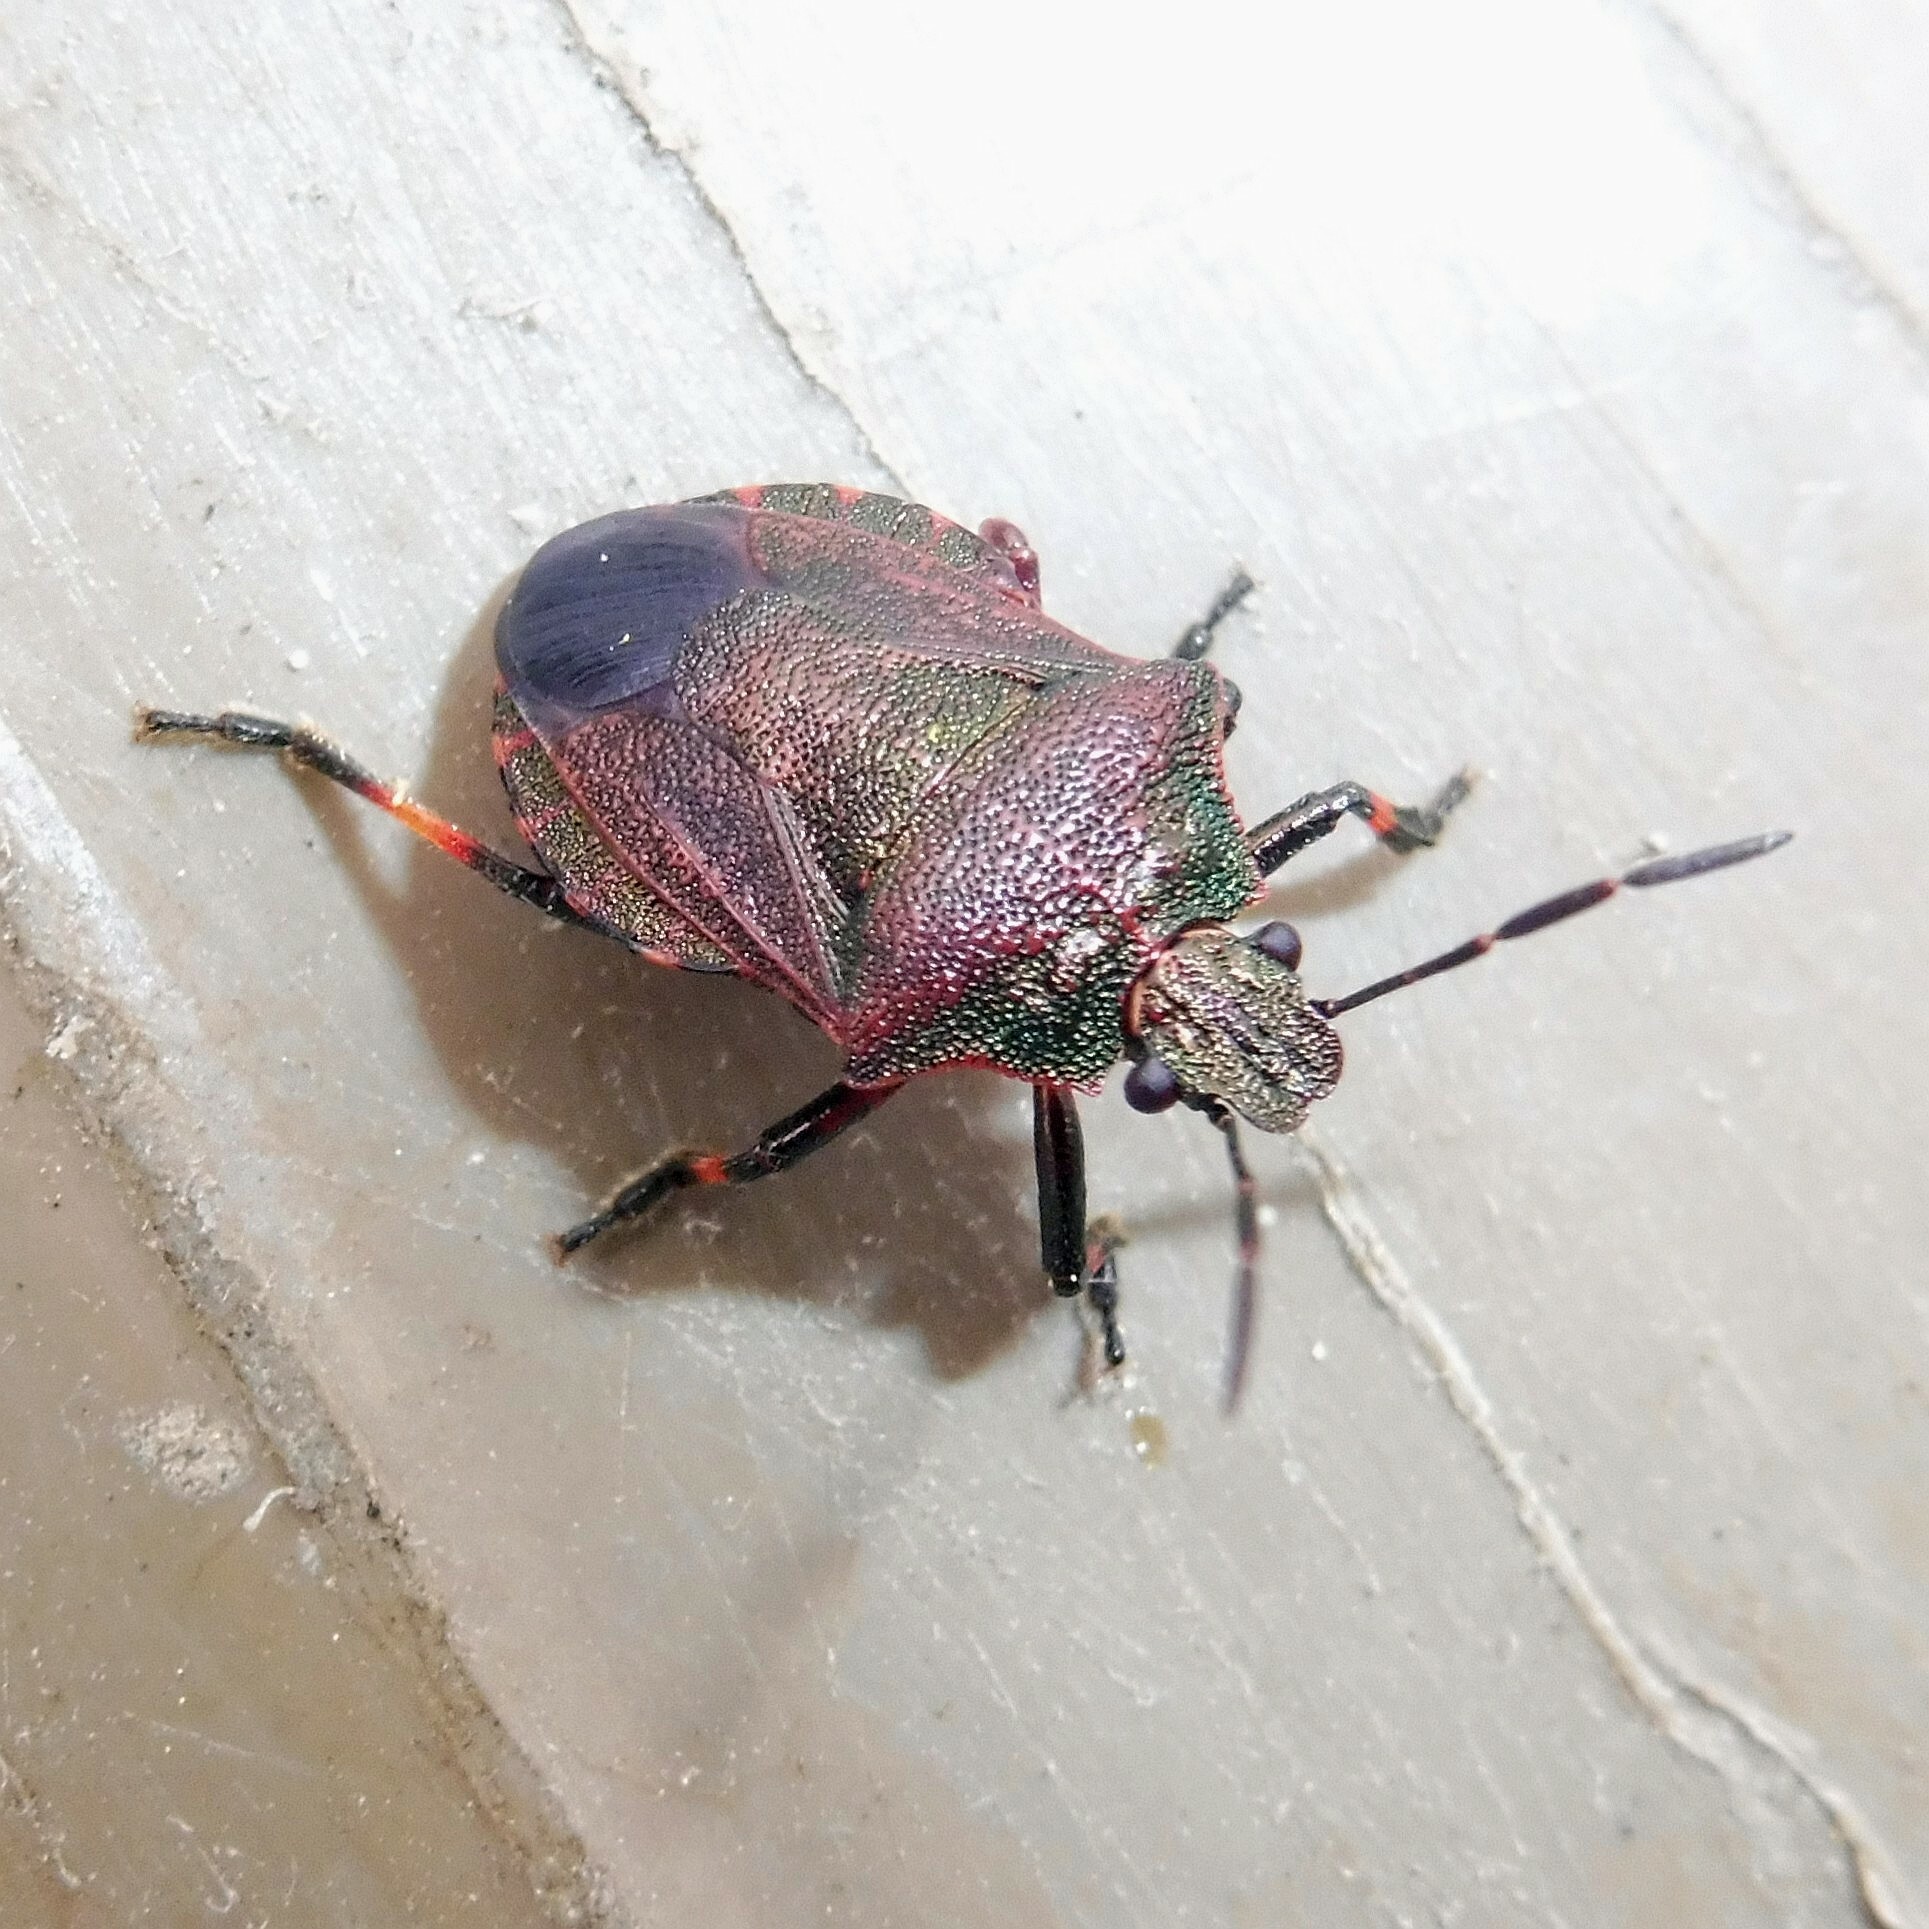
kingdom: Animalia
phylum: Arthropoda
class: Insecta
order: Hemiptera
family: Pentatomidae
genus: Rhacognathus
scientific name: Rhacognathus punctatus
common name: Heather bug
